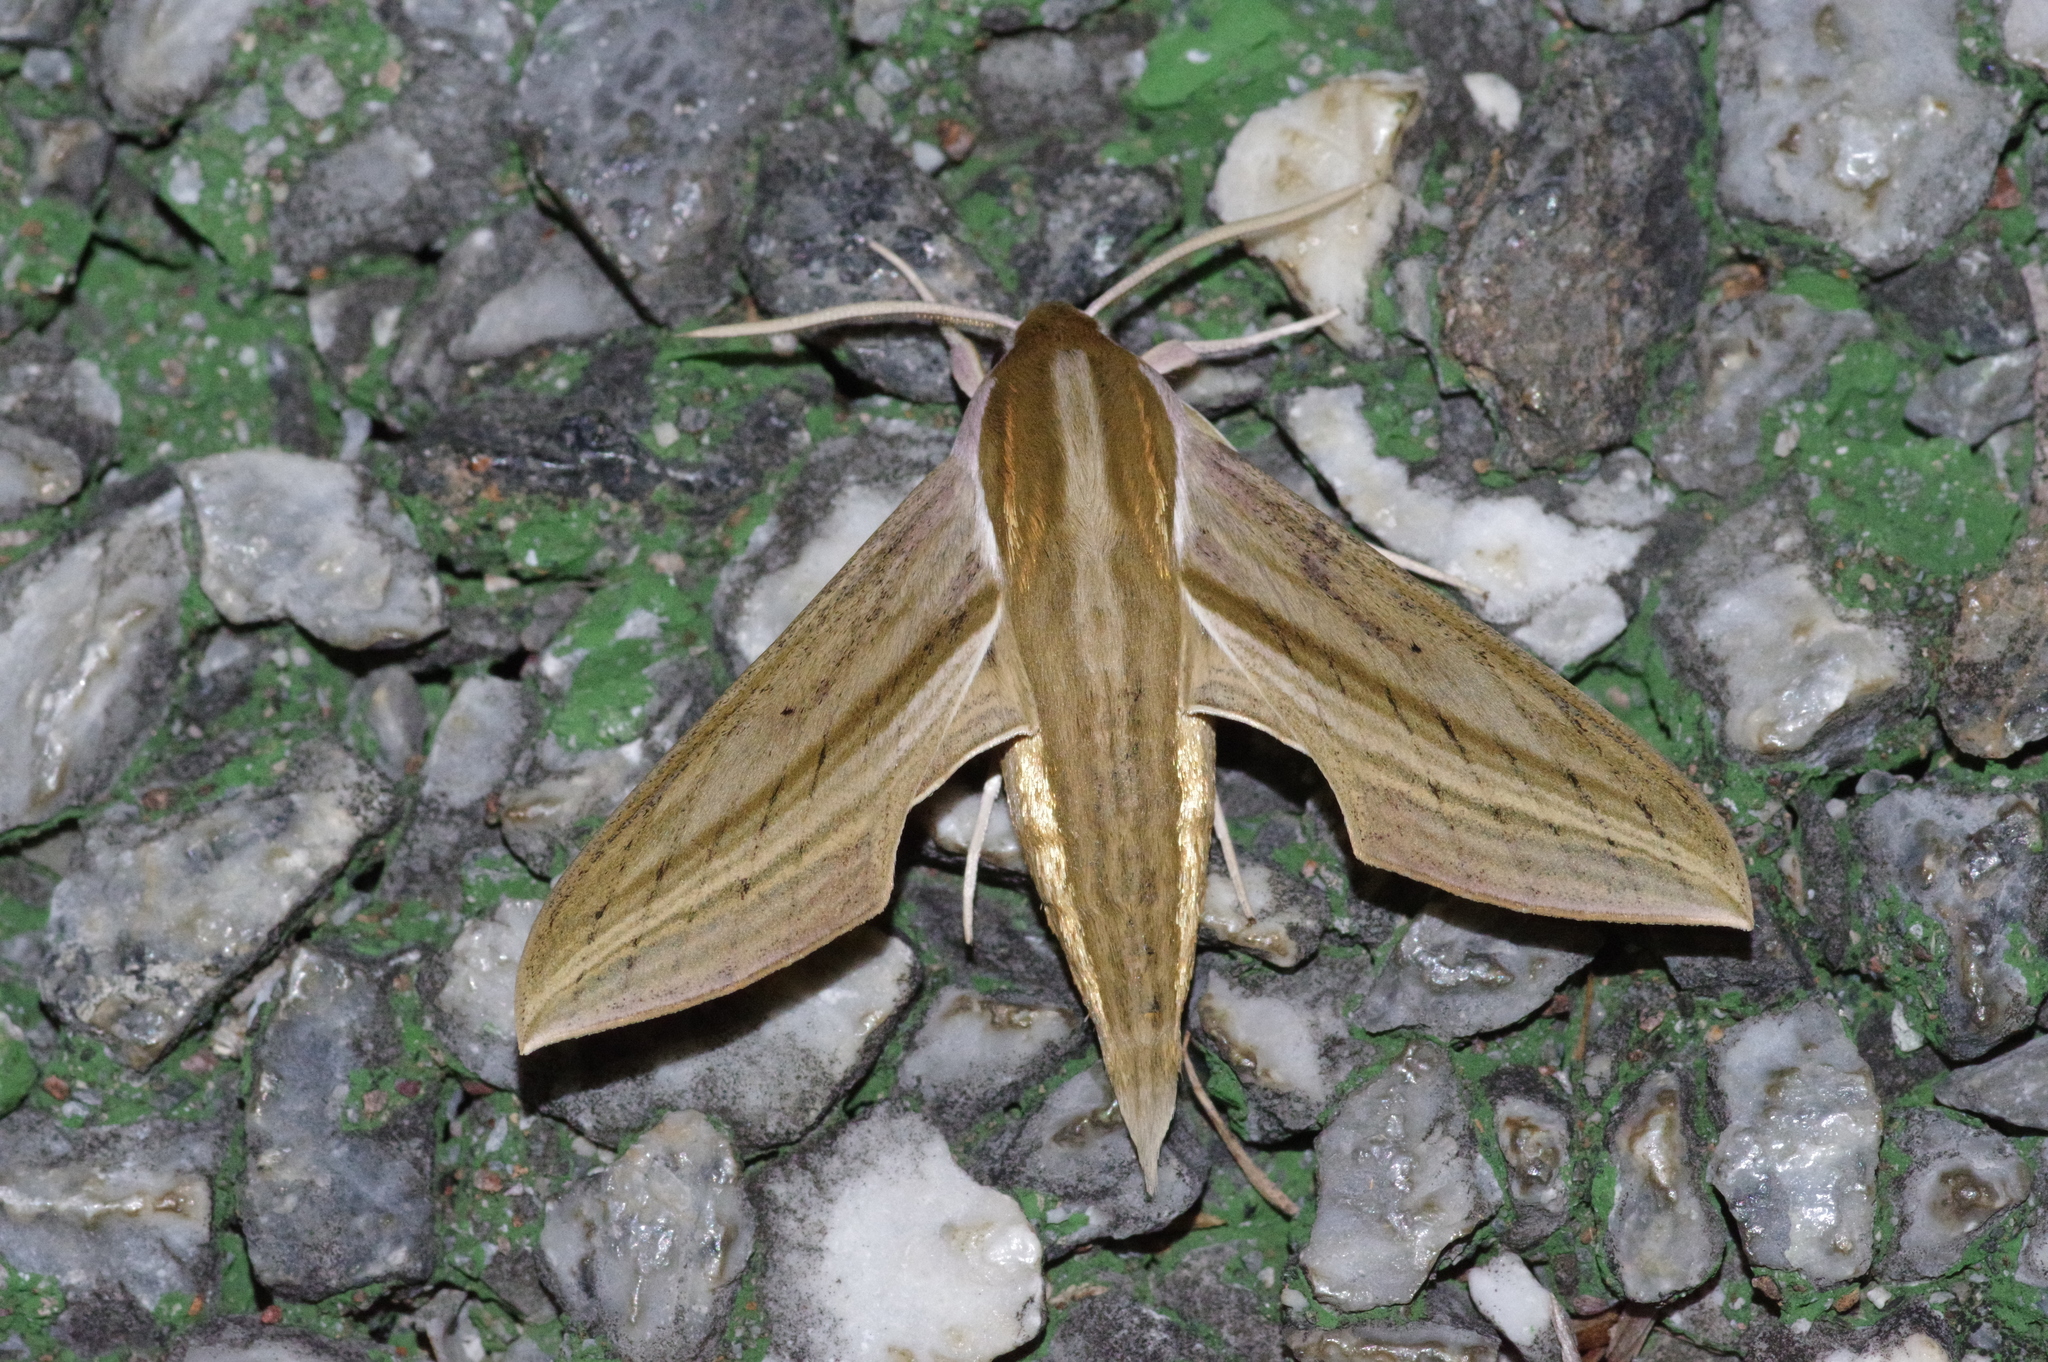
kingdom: Animalia
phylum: Arthropoda
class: Insecta
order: Lepidoptera
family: Sphingidae
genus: Theretra
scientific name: Theretra japonica
